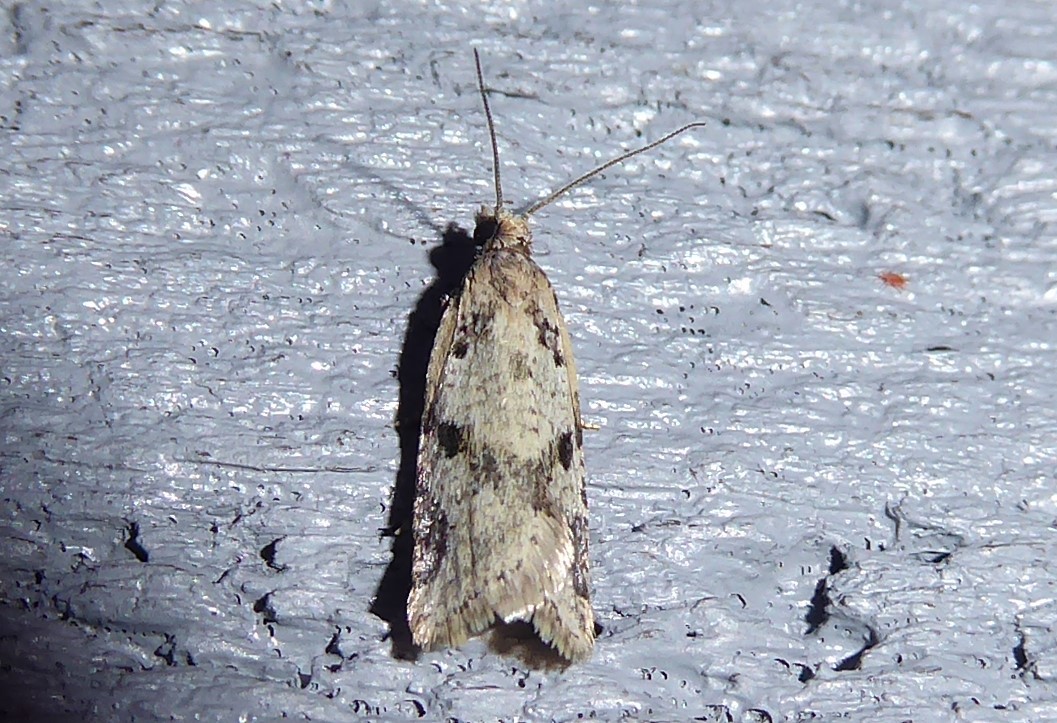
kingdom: Animalia
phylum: Arthropoda
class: Insecta
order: Lepidoptera
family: Tortricidae
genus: Capua
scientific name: Capua semiferana
